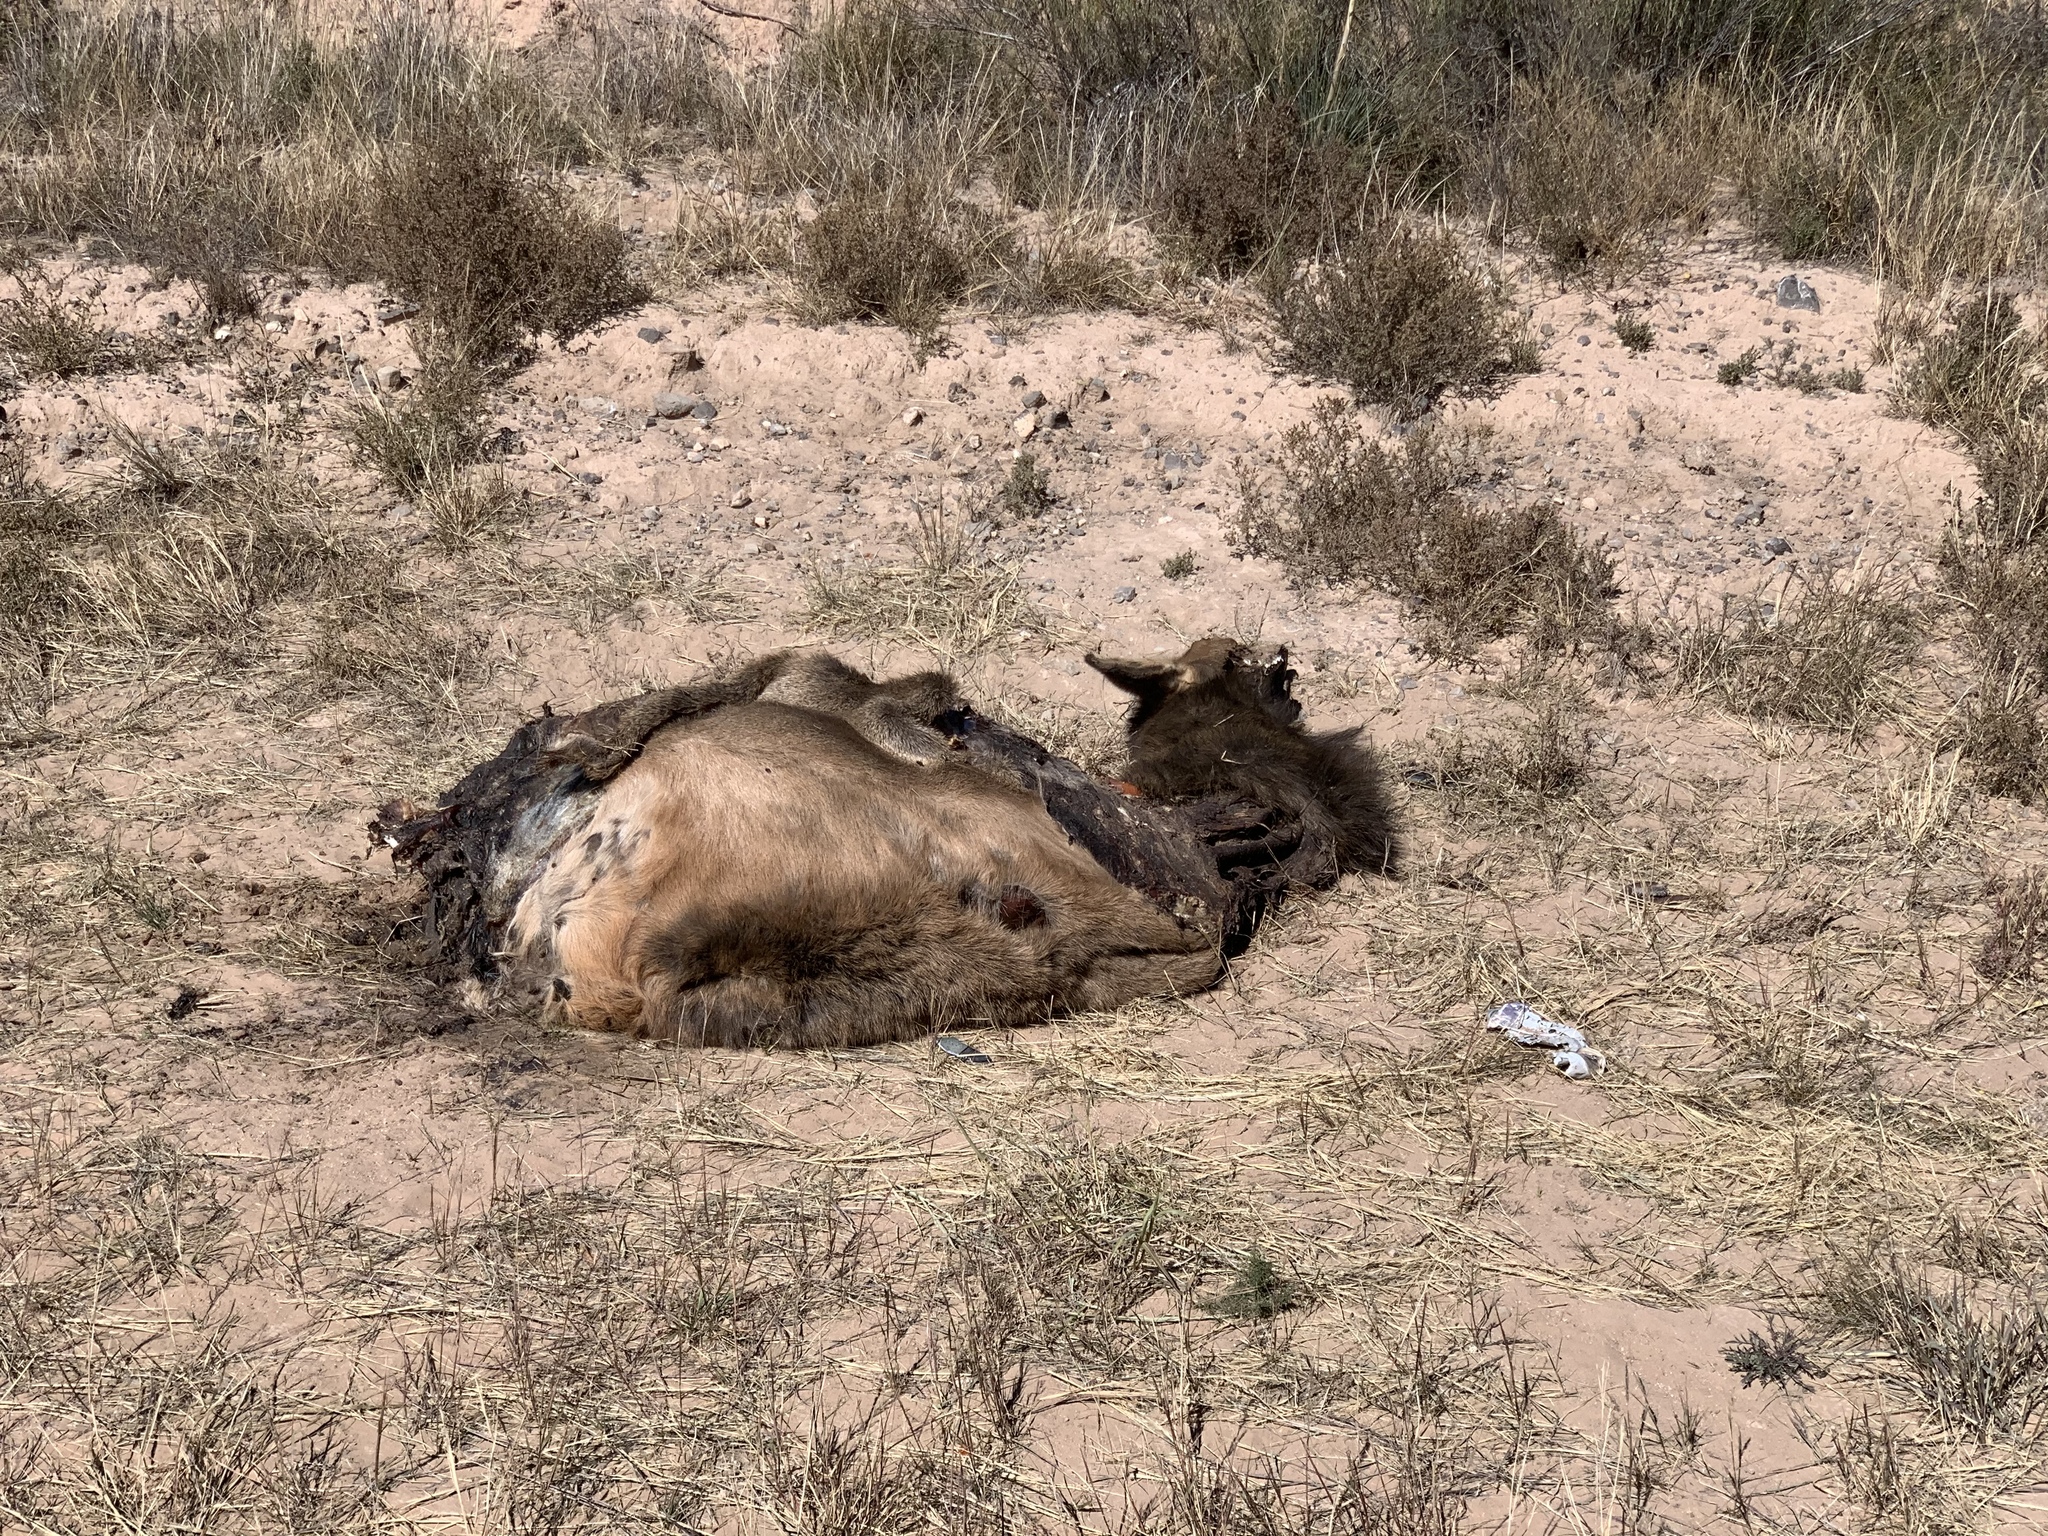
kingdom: Animalia
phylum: Chordata
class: Mammalia
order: Artiodactyla
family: Cervidae
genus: Cervus
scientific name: Cervus elaphus
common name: Red deer
